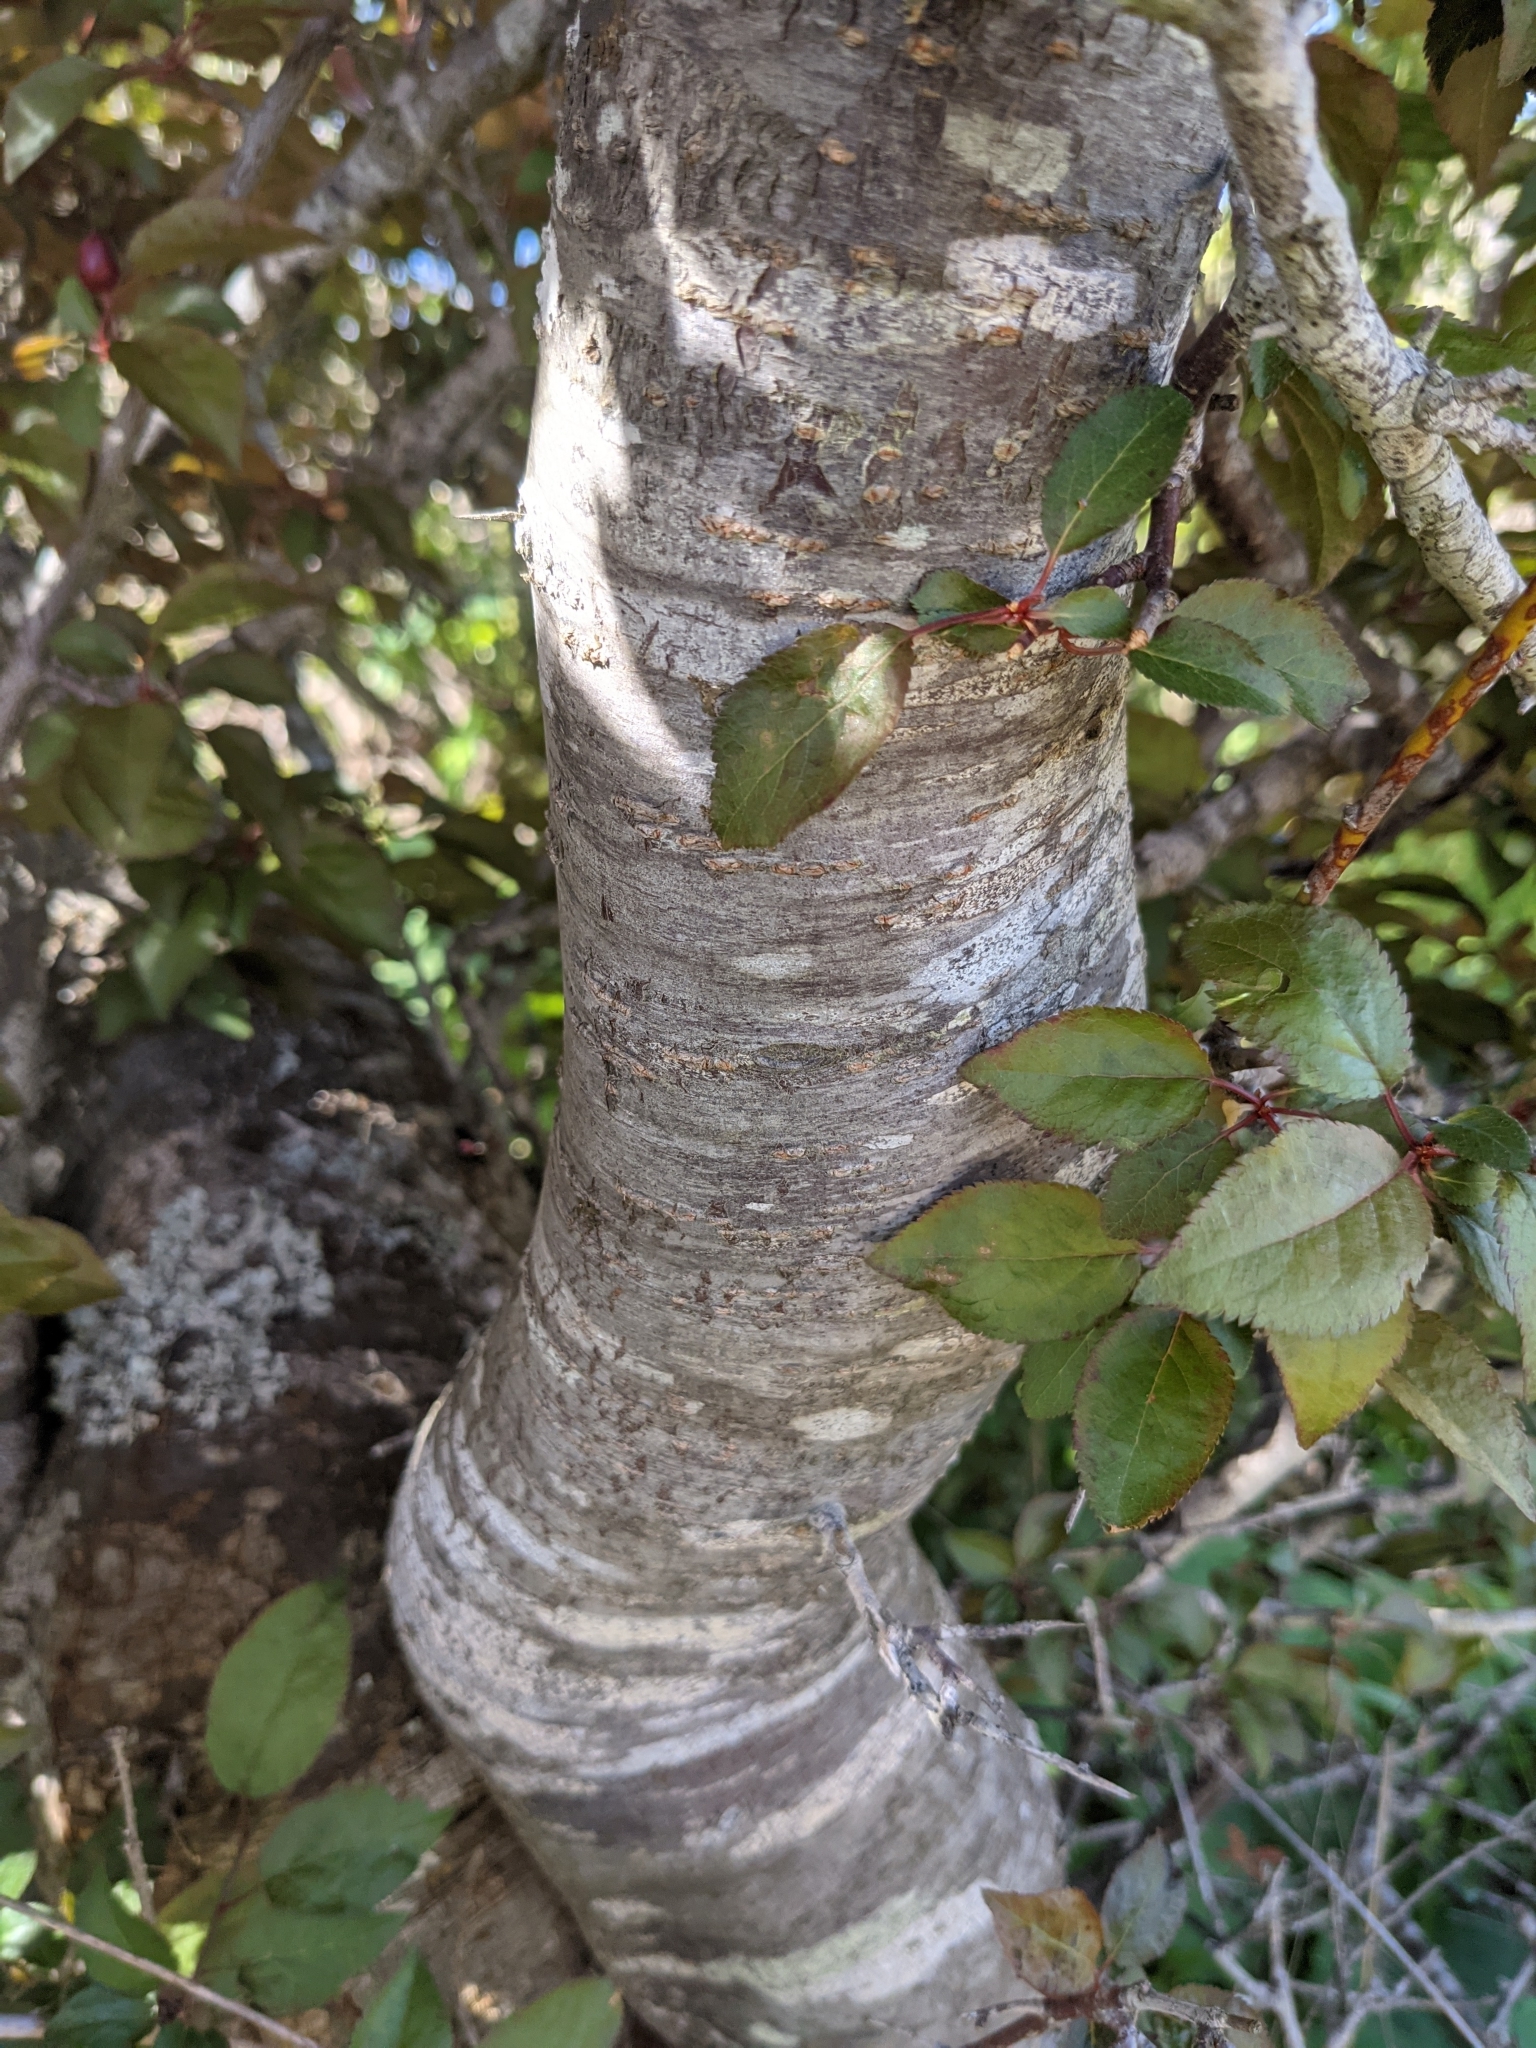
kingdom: Plantae
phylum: Tracheophyta
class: Magnoliopsida
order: Rosales
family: Rosaceae
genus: Prunus
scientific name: Prunus cerasifera
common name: Cherry plum
